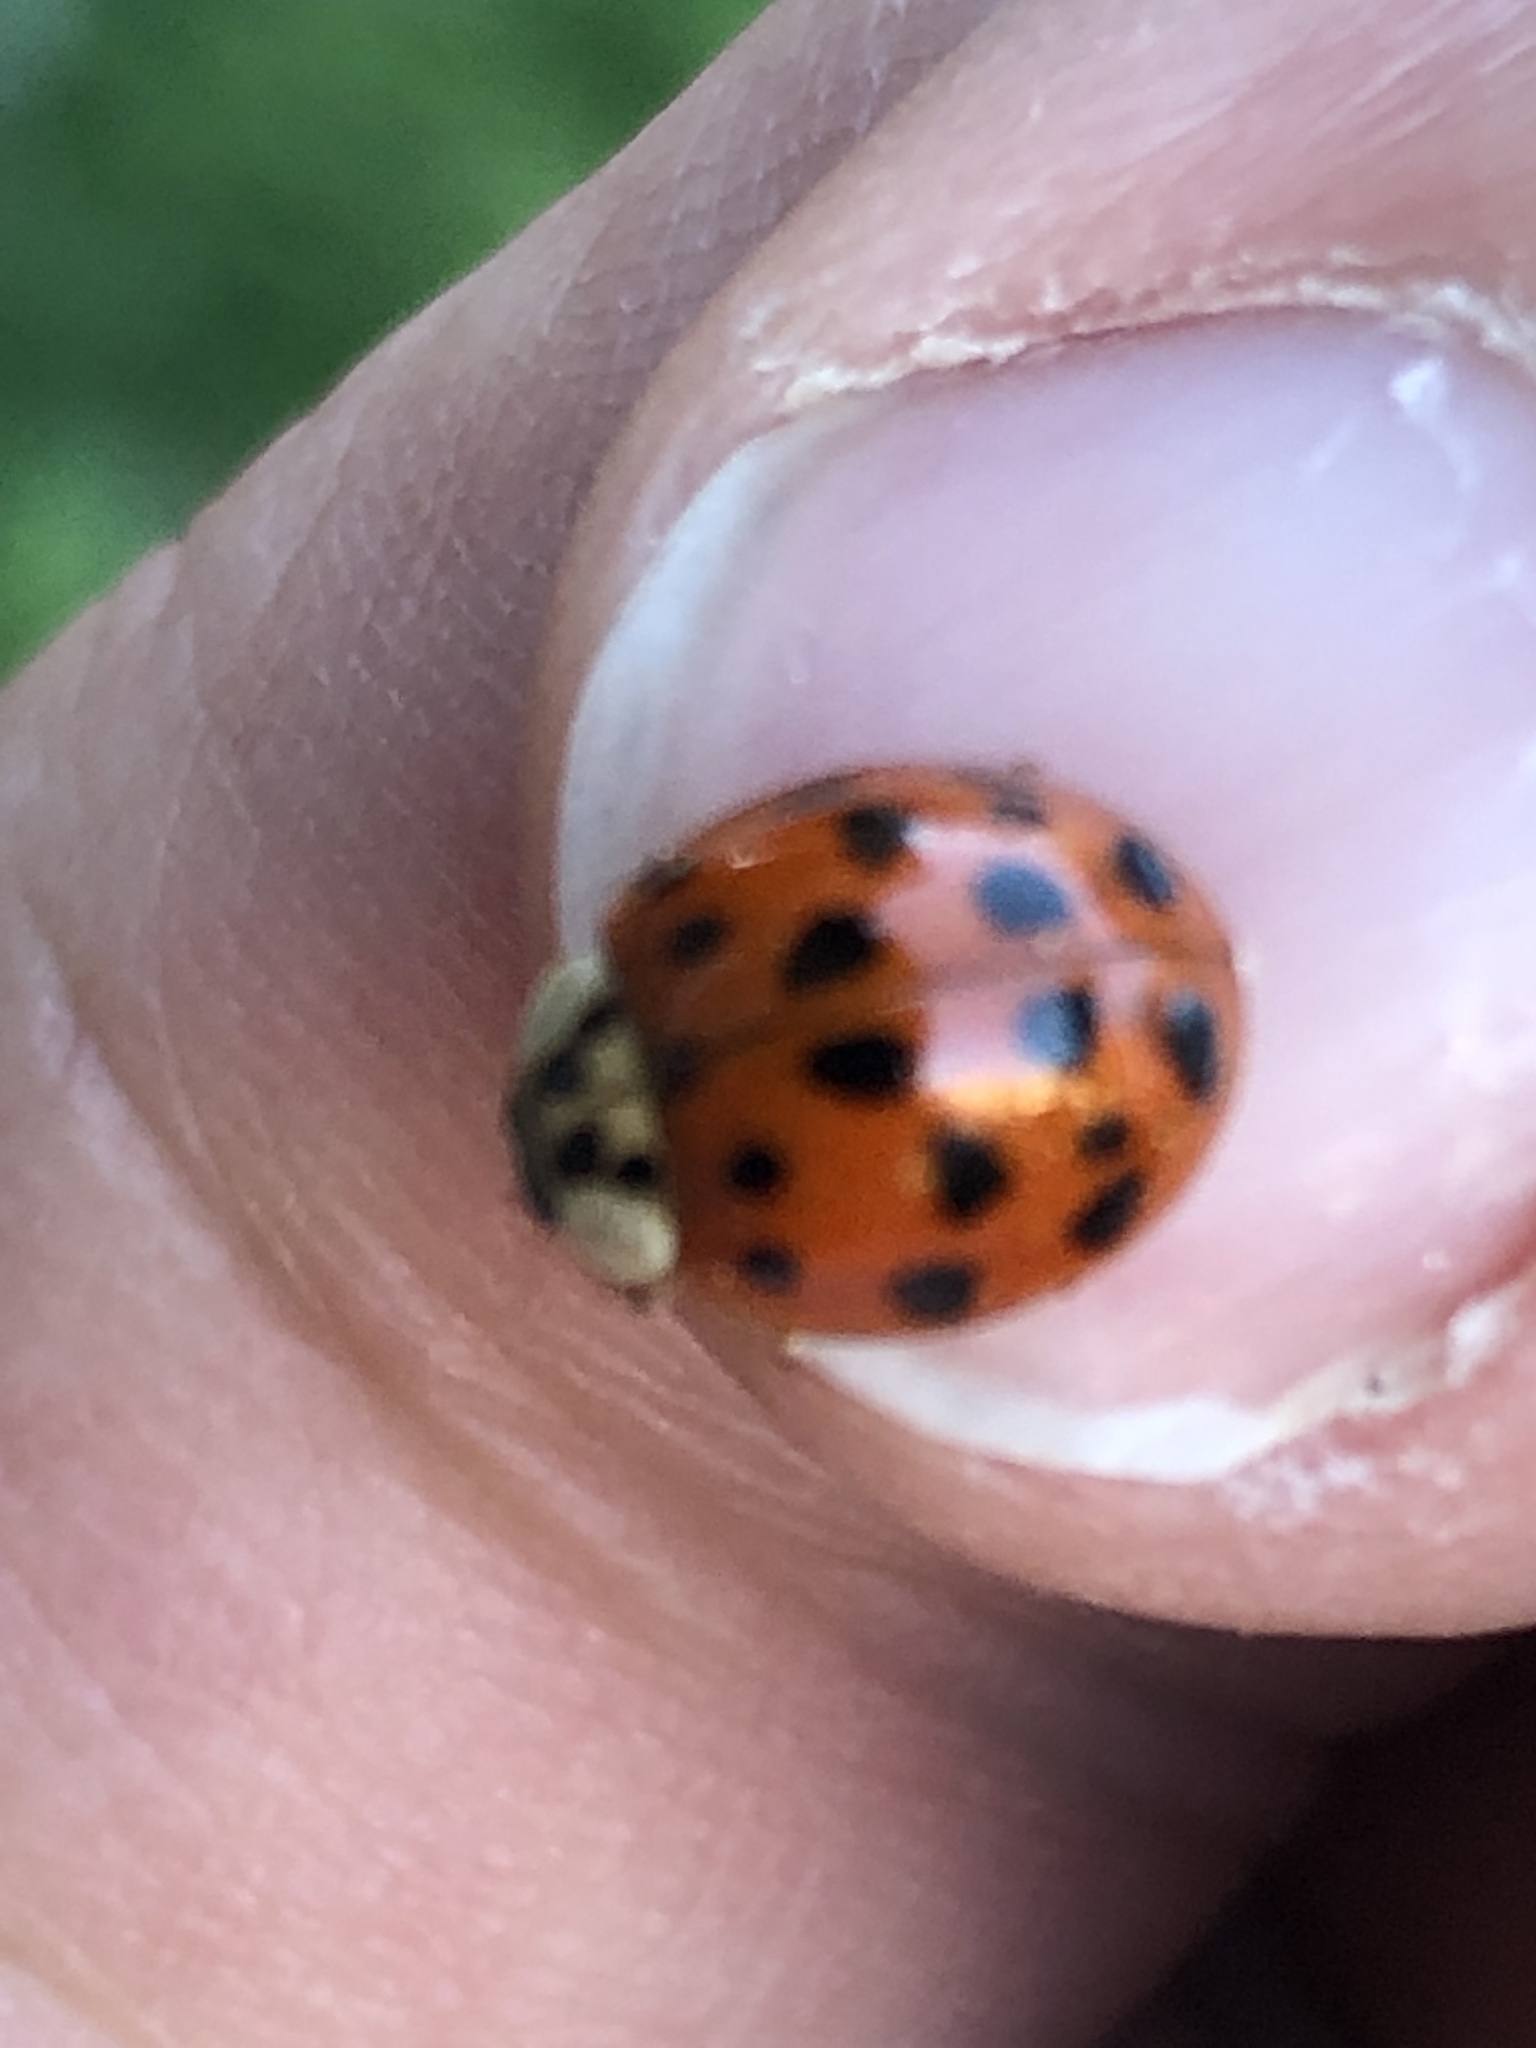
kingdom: Animalia
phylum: Arthropoda
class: Insecta
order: Coleoptera
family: Coccinellidae
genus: Harmonia
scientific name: Harmonia axyridis
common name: Harlequin ladybird
